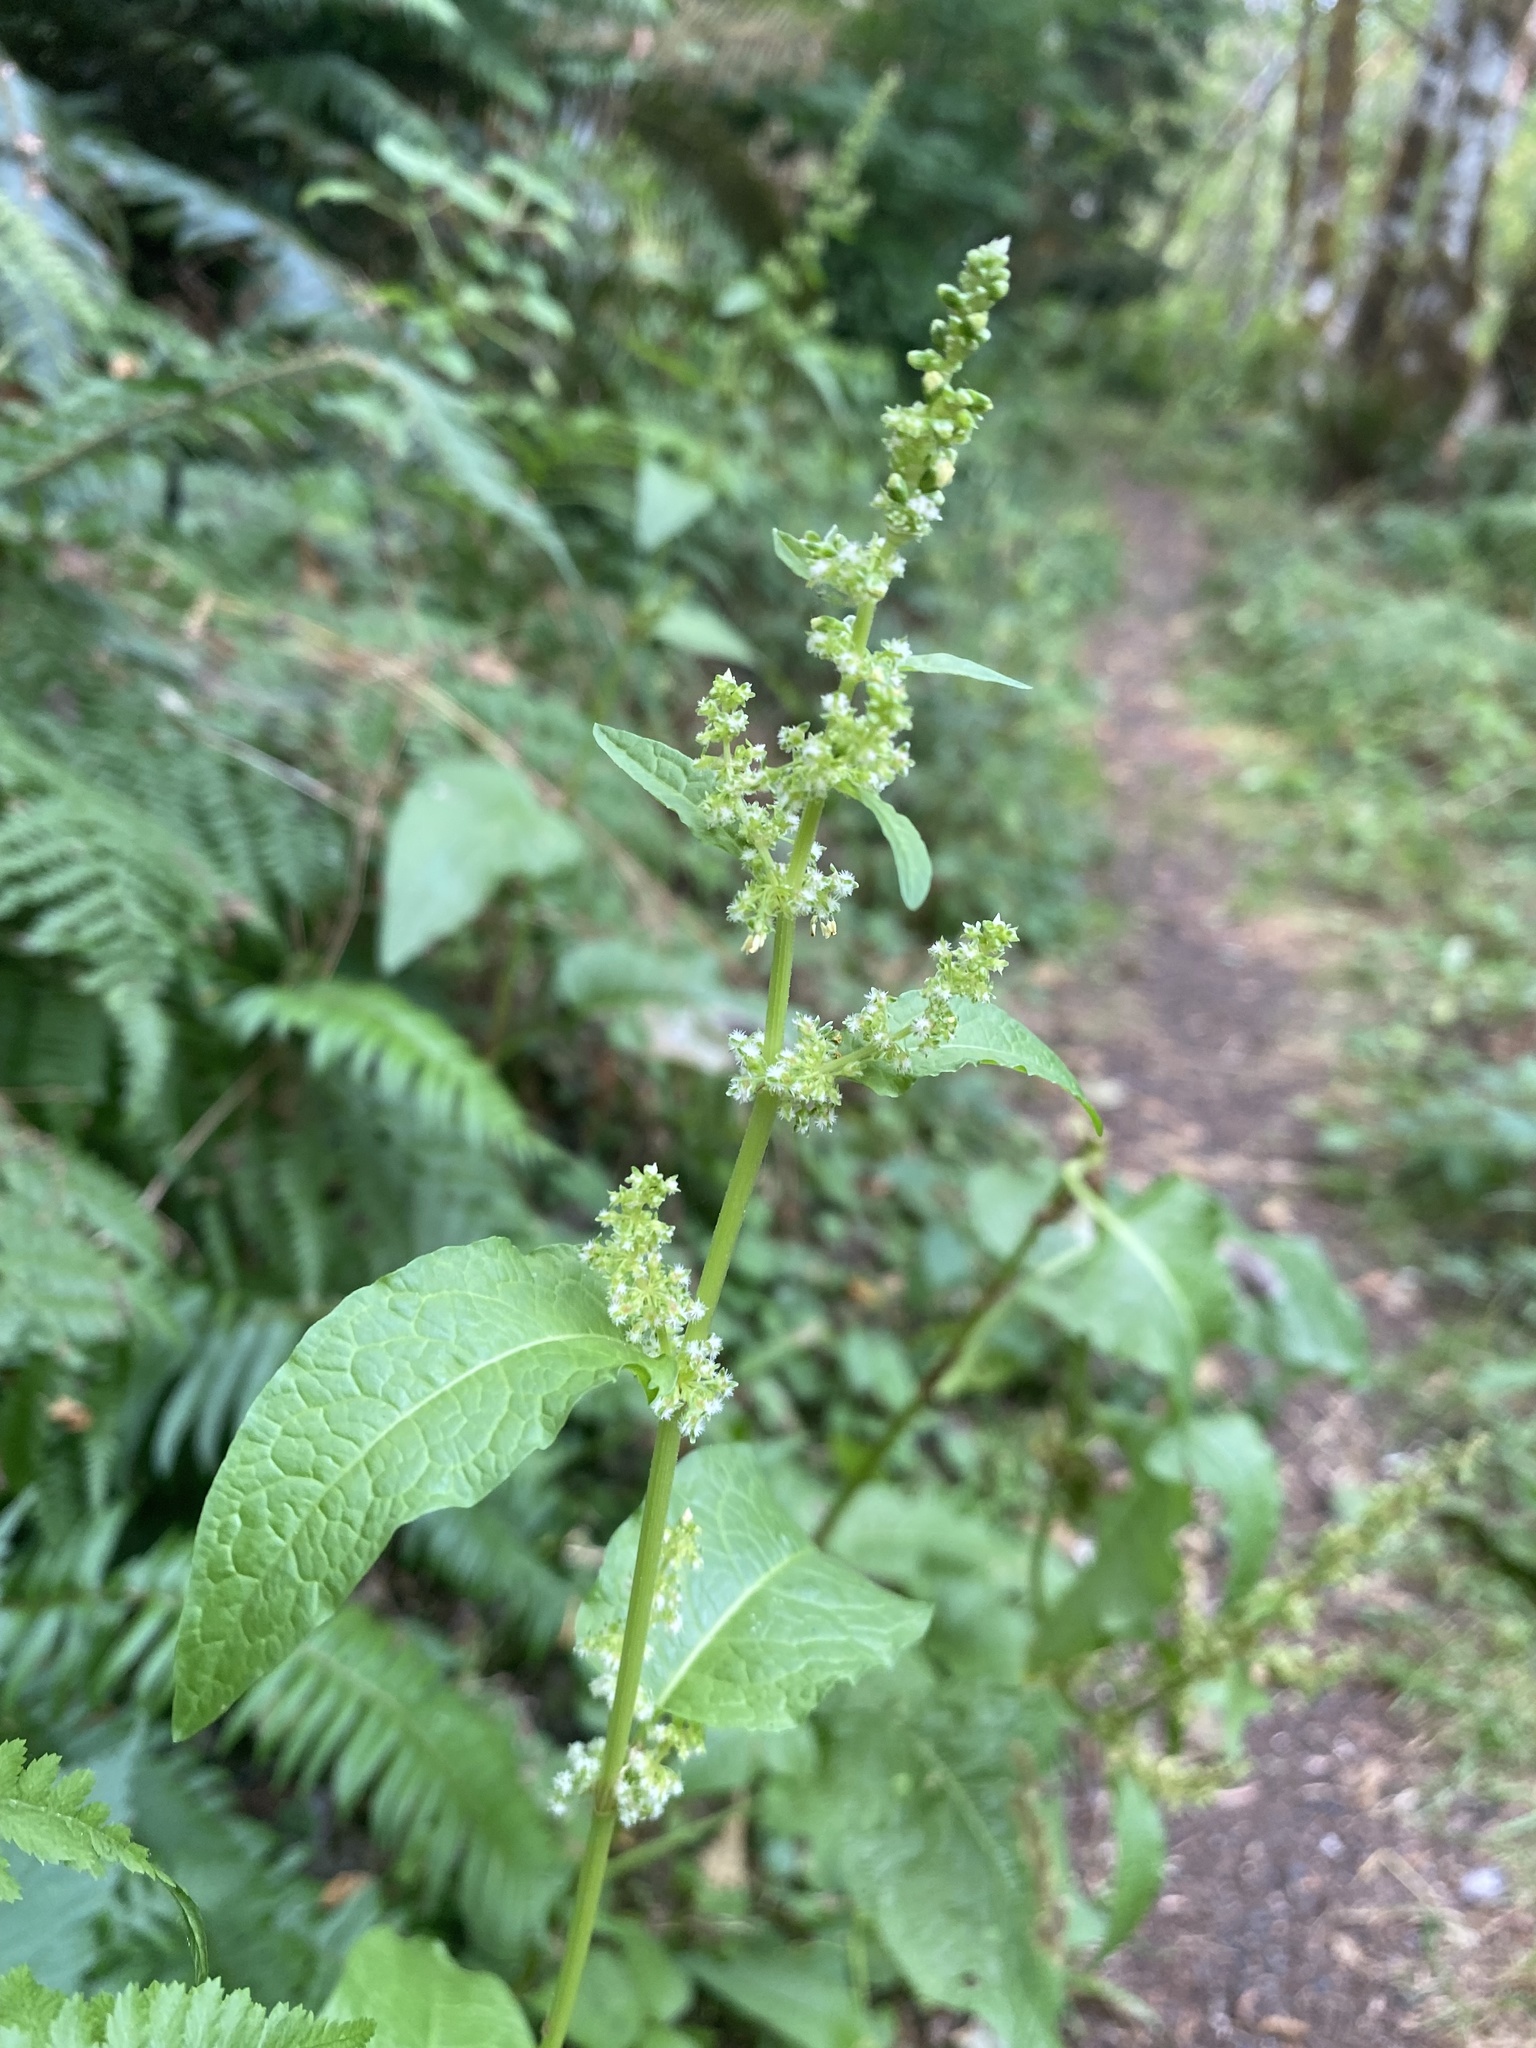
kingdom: Plantae
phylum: Tracheophyta
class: Magnoliopsida
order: Caryophyllales
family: Polygonaceae
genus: Rumex
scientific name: Rumex obtusifolius
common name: Bitter dock
